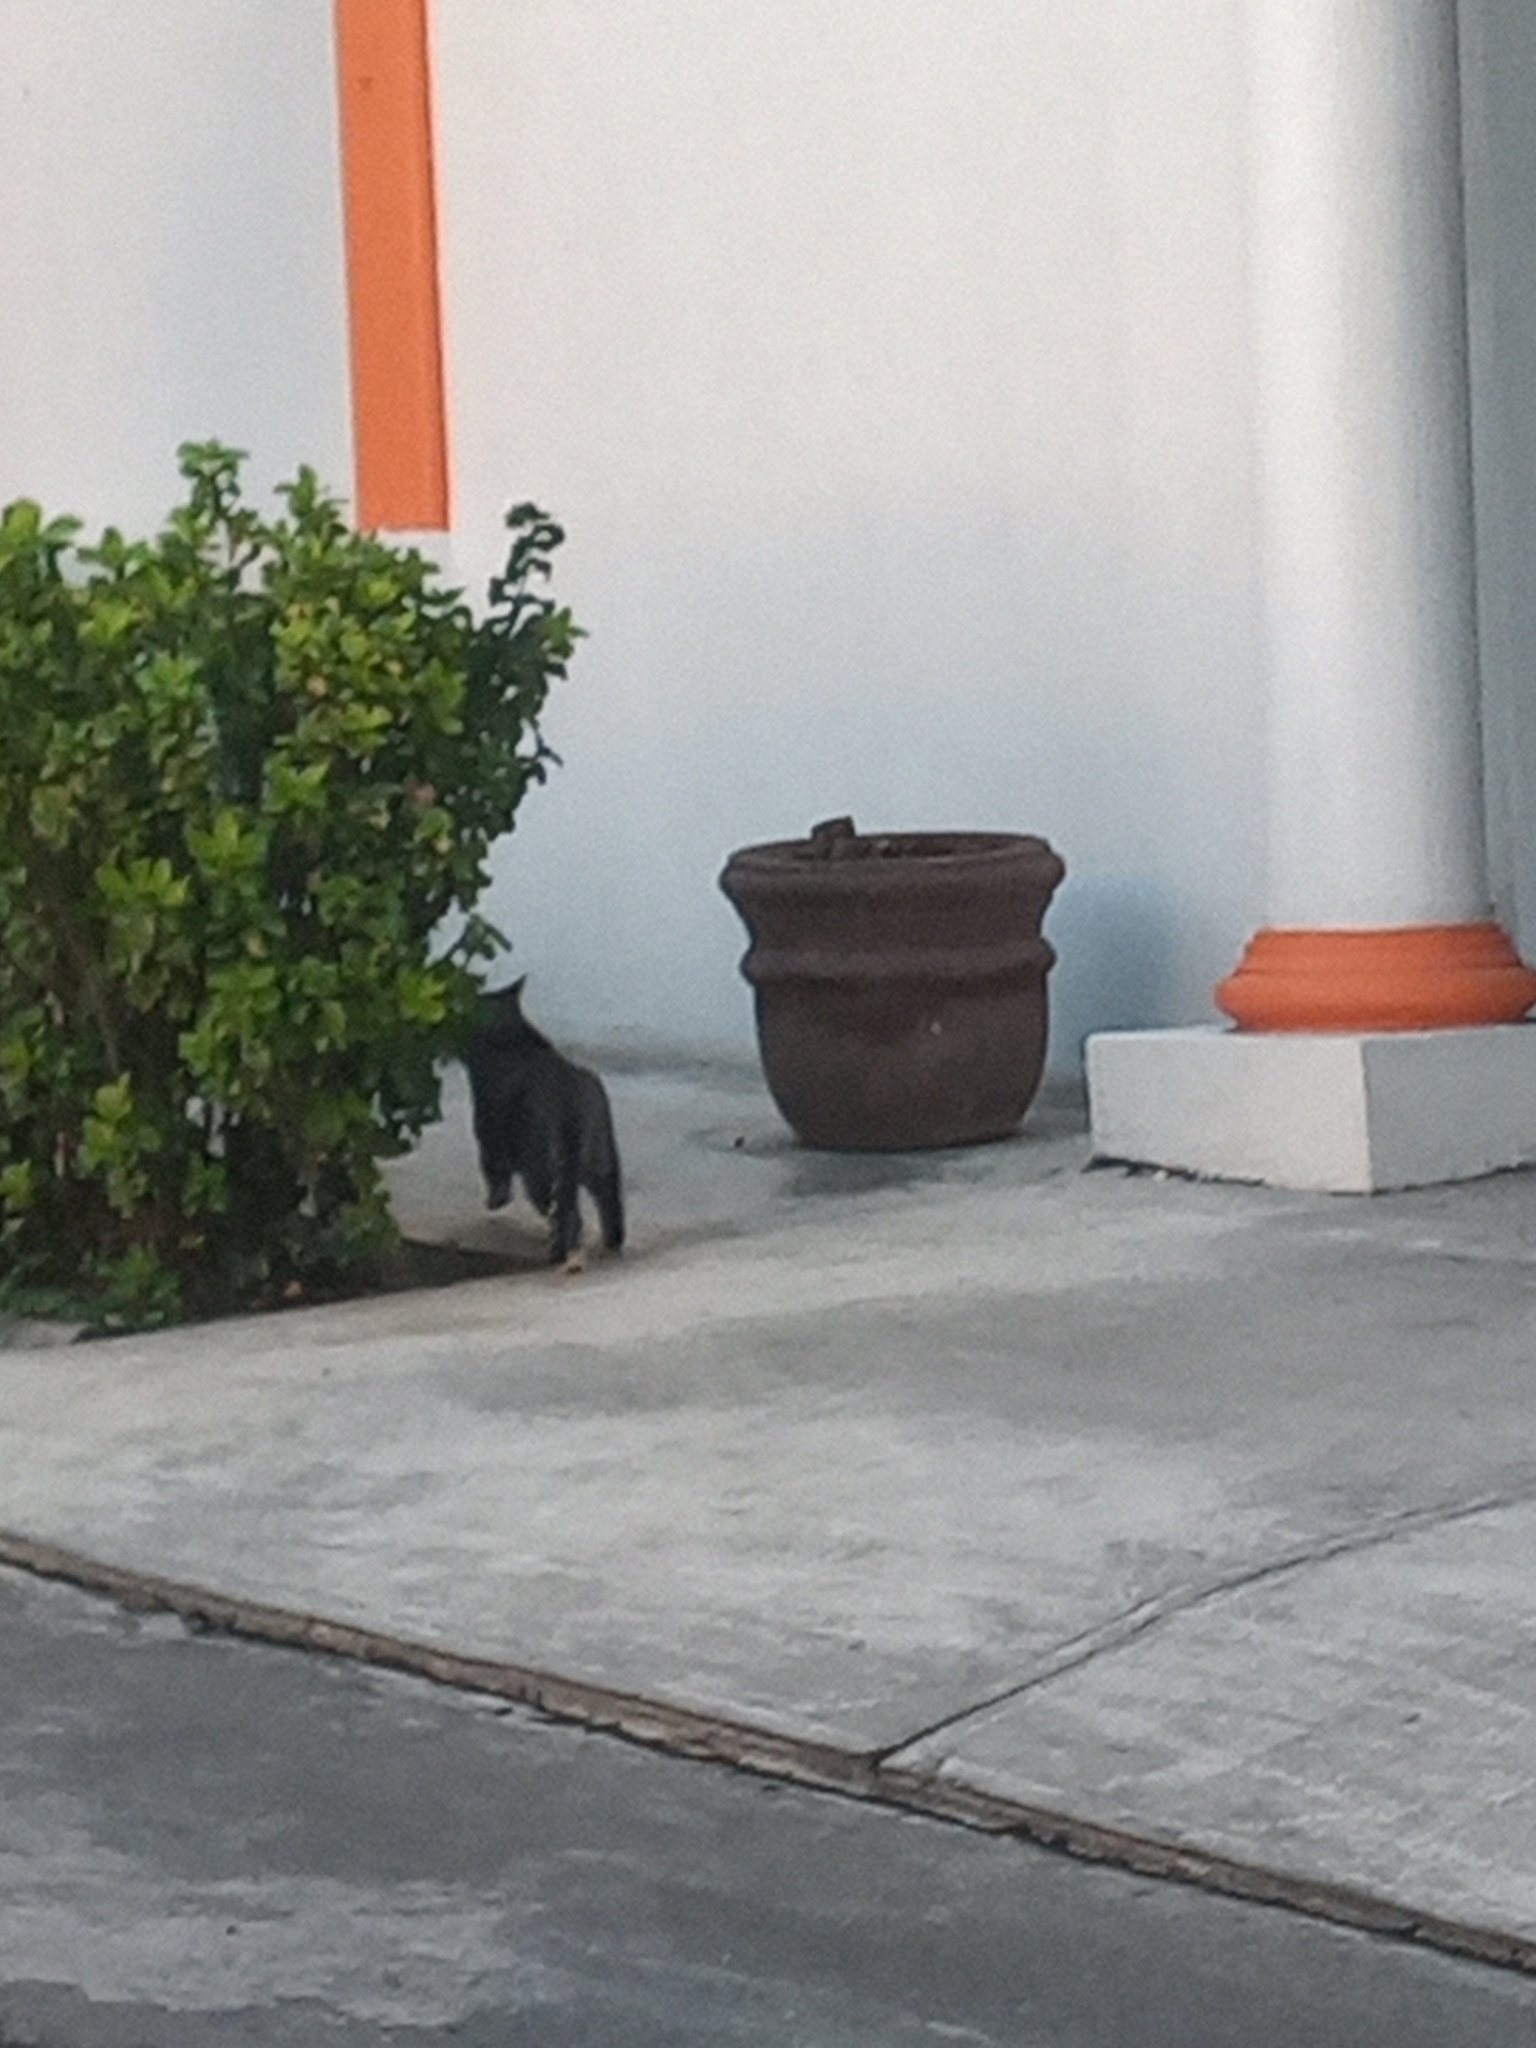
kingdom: Animalia
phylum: Chordata
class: Mammalia
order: Carnivora
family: Felidae
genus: Felis
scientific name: Felis catus
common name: Domestic cat
